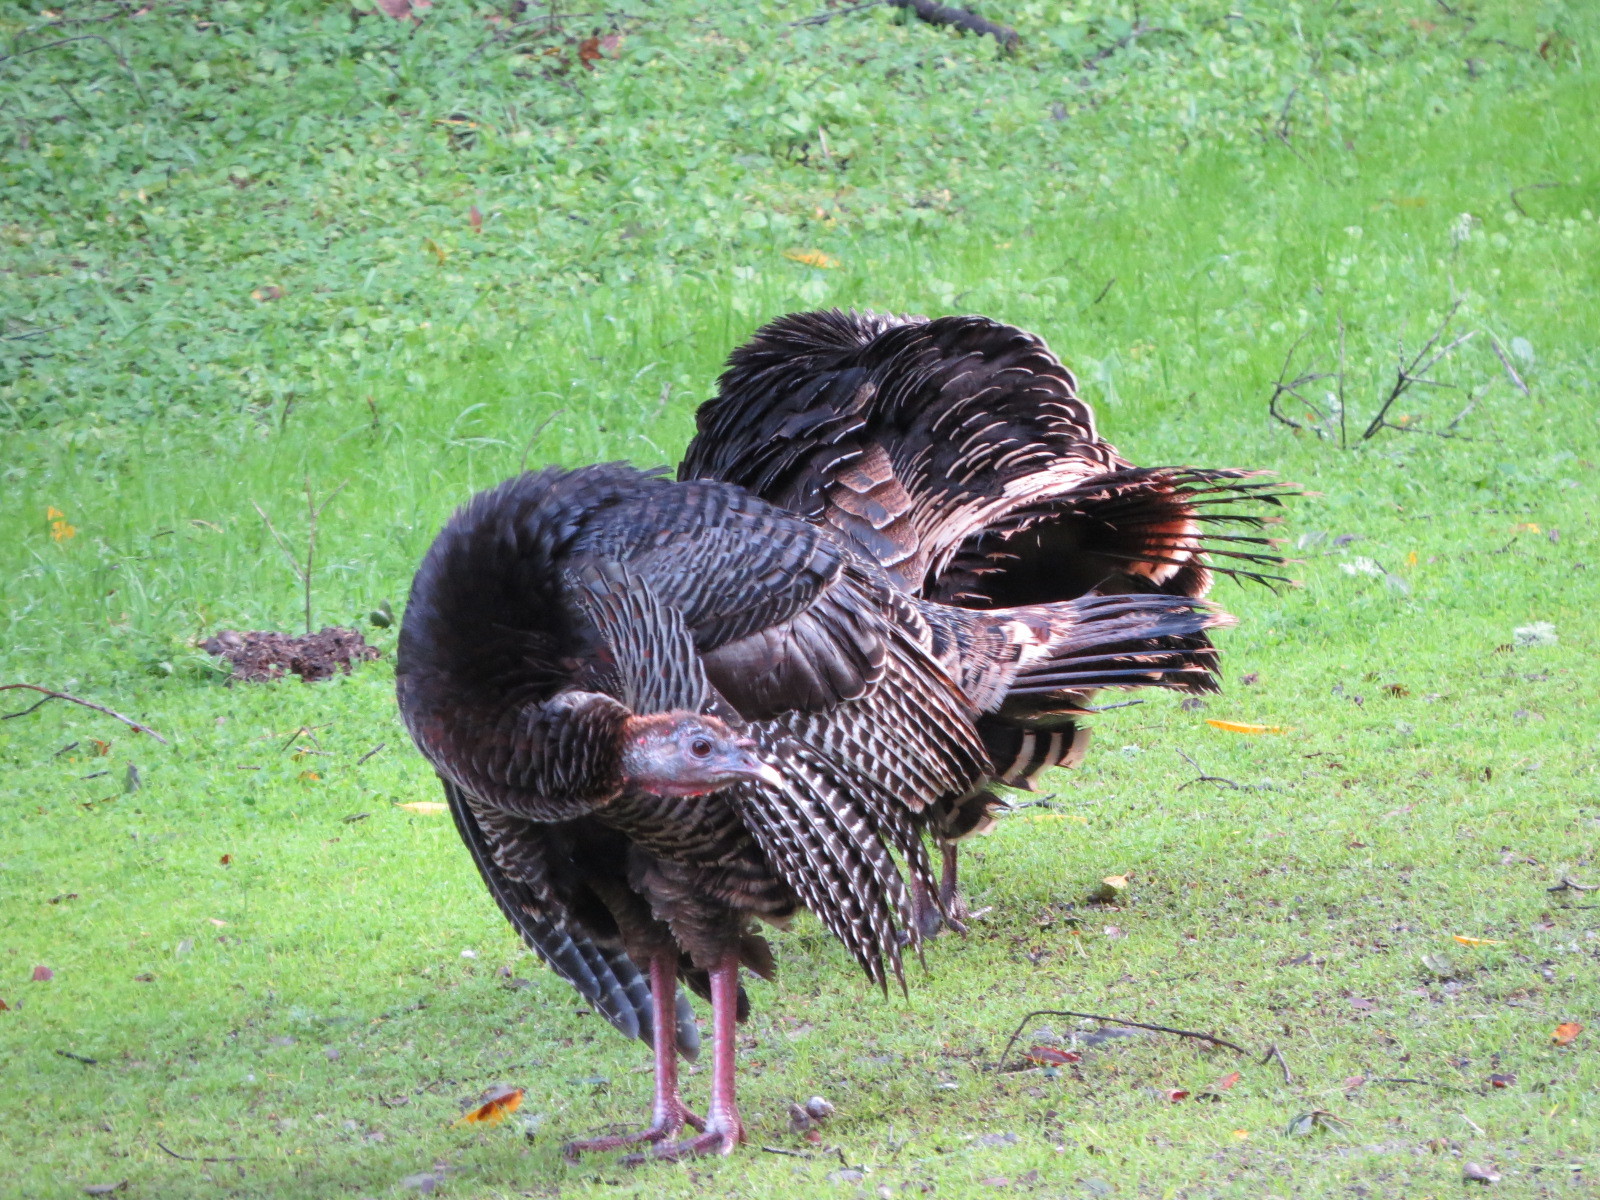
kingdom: Animalia
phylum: Chordata
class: Aves
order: Galliformes
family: Phasianidae
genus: Meleagris
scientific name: Meleagris gallopavo
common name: Wild turkey
